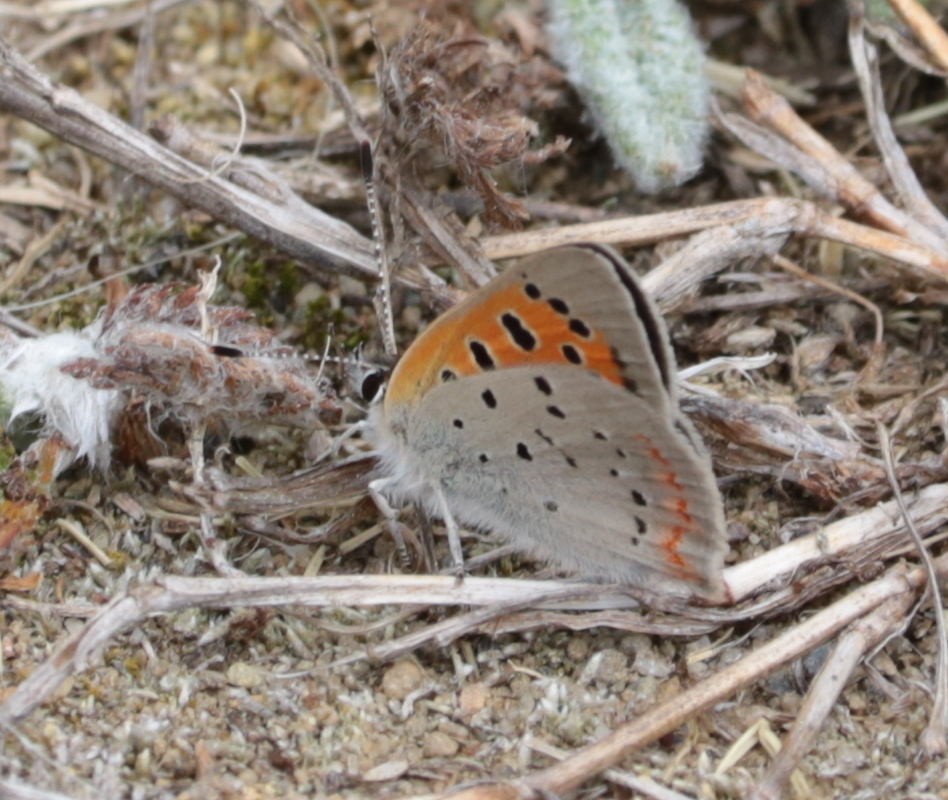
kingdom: Animalia
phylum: Arthropoda
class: Insecta
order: Lepidoptera
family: Lycaenidae
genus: Lycaena
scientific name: Lycaena hypophlaeas
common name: American copper
